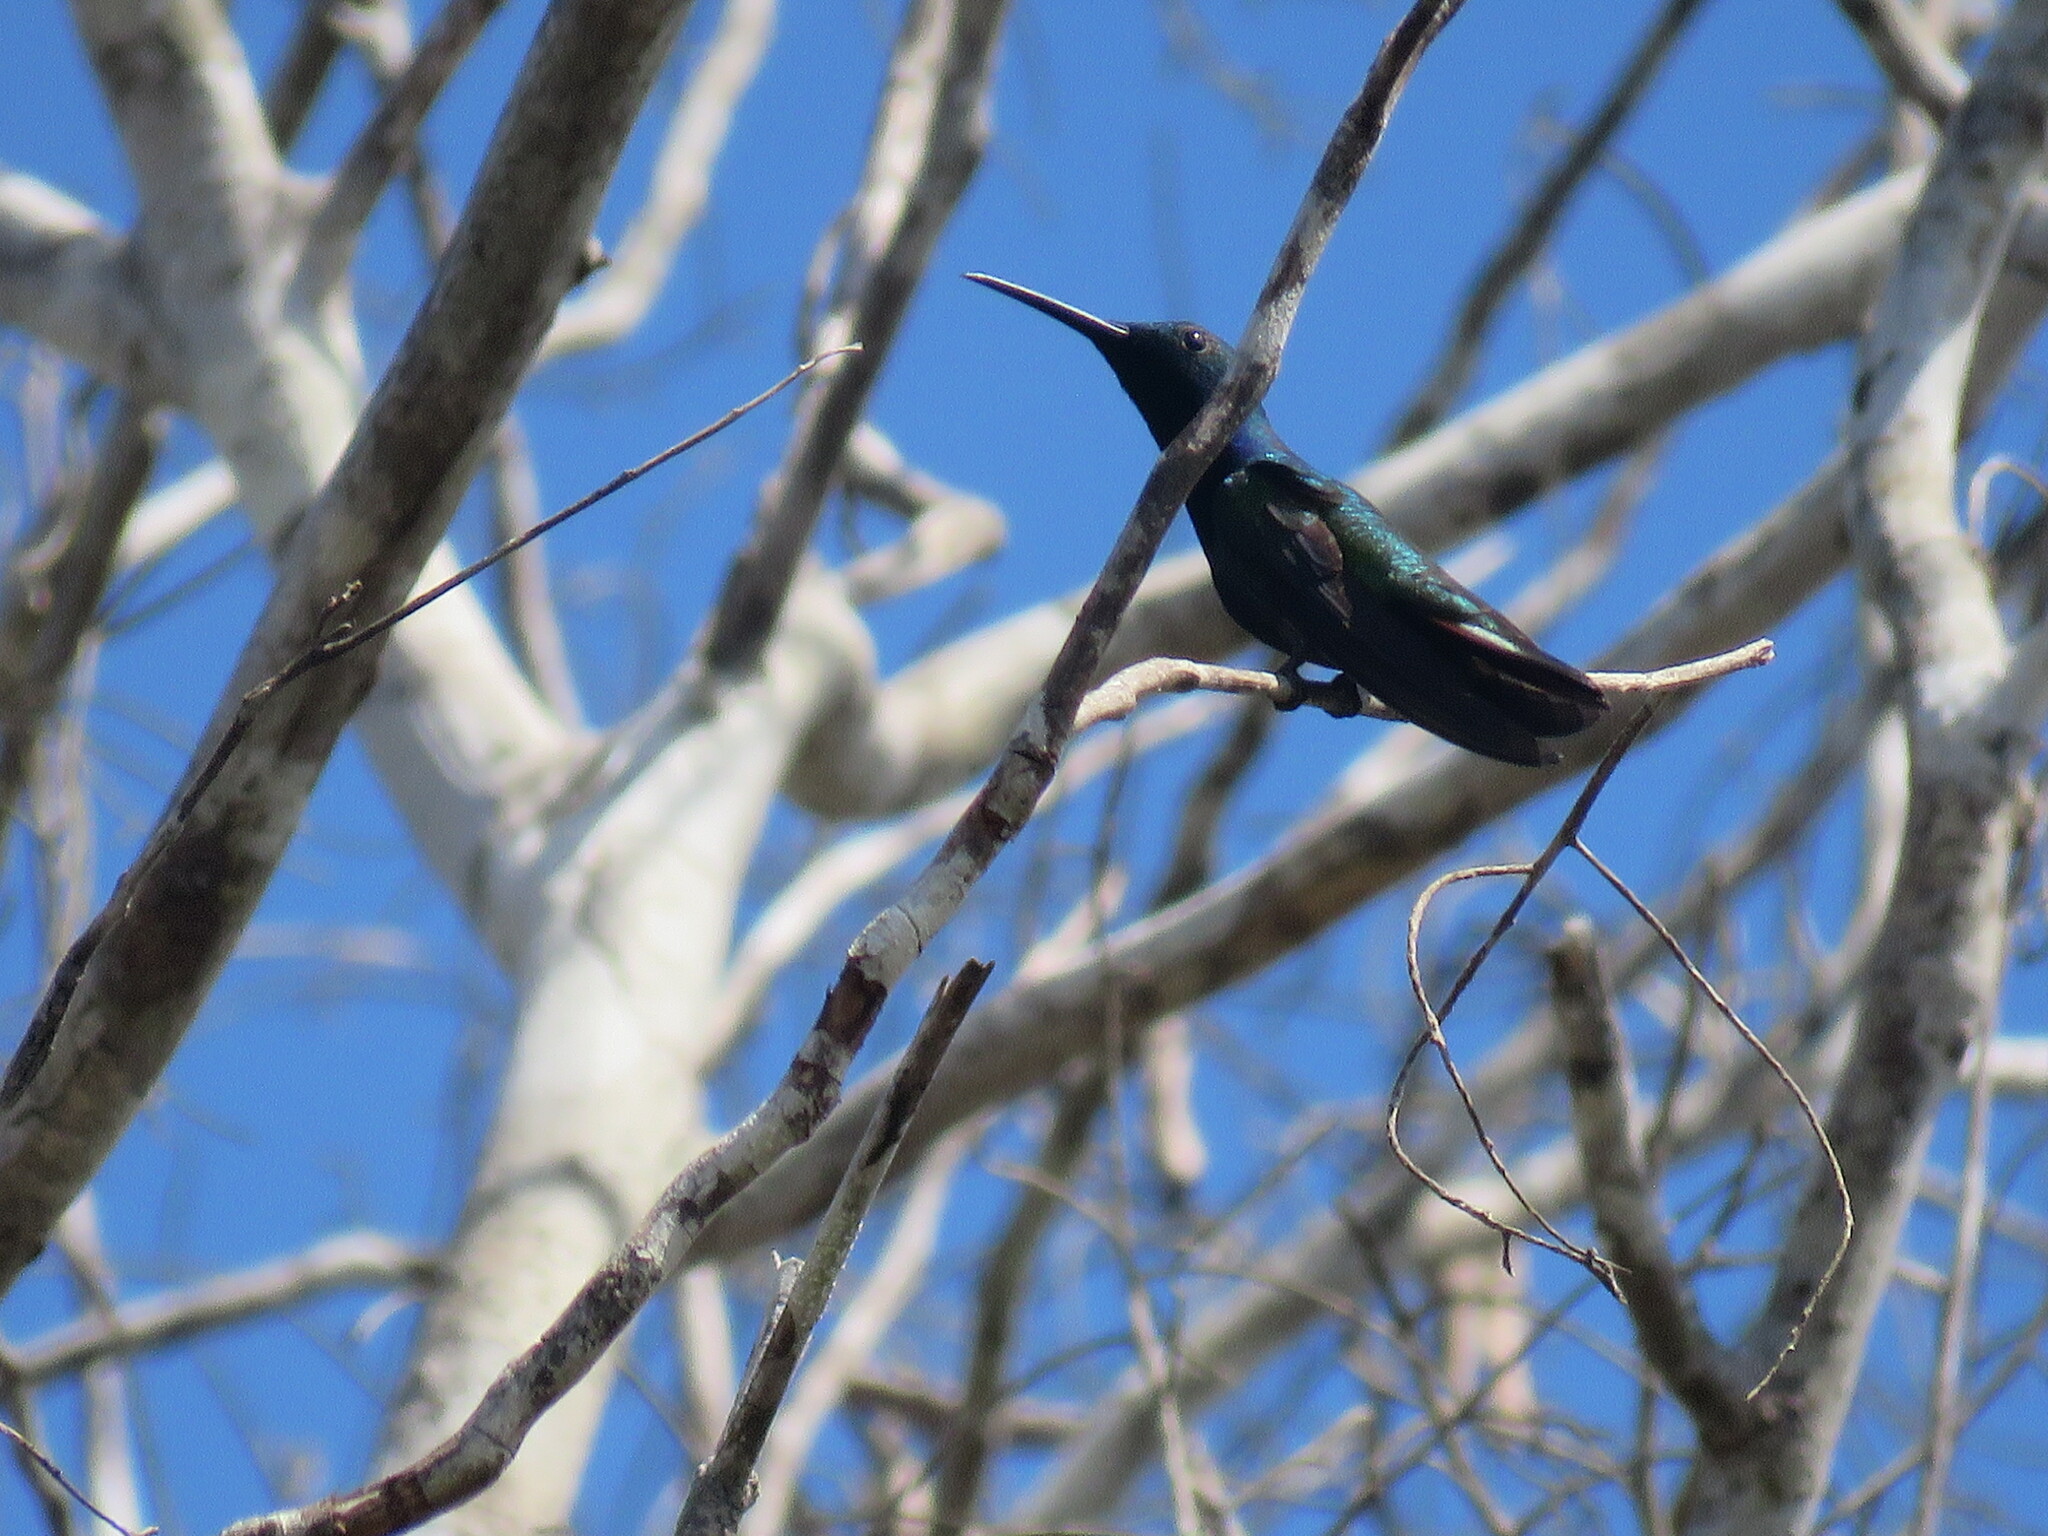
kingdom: Animalia
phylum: Chordata
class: Aves
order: Apodiformes
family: Trochilidae
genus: Anthracothorax
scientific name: Anthracothorax nigricollis
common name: Black-throated mango
